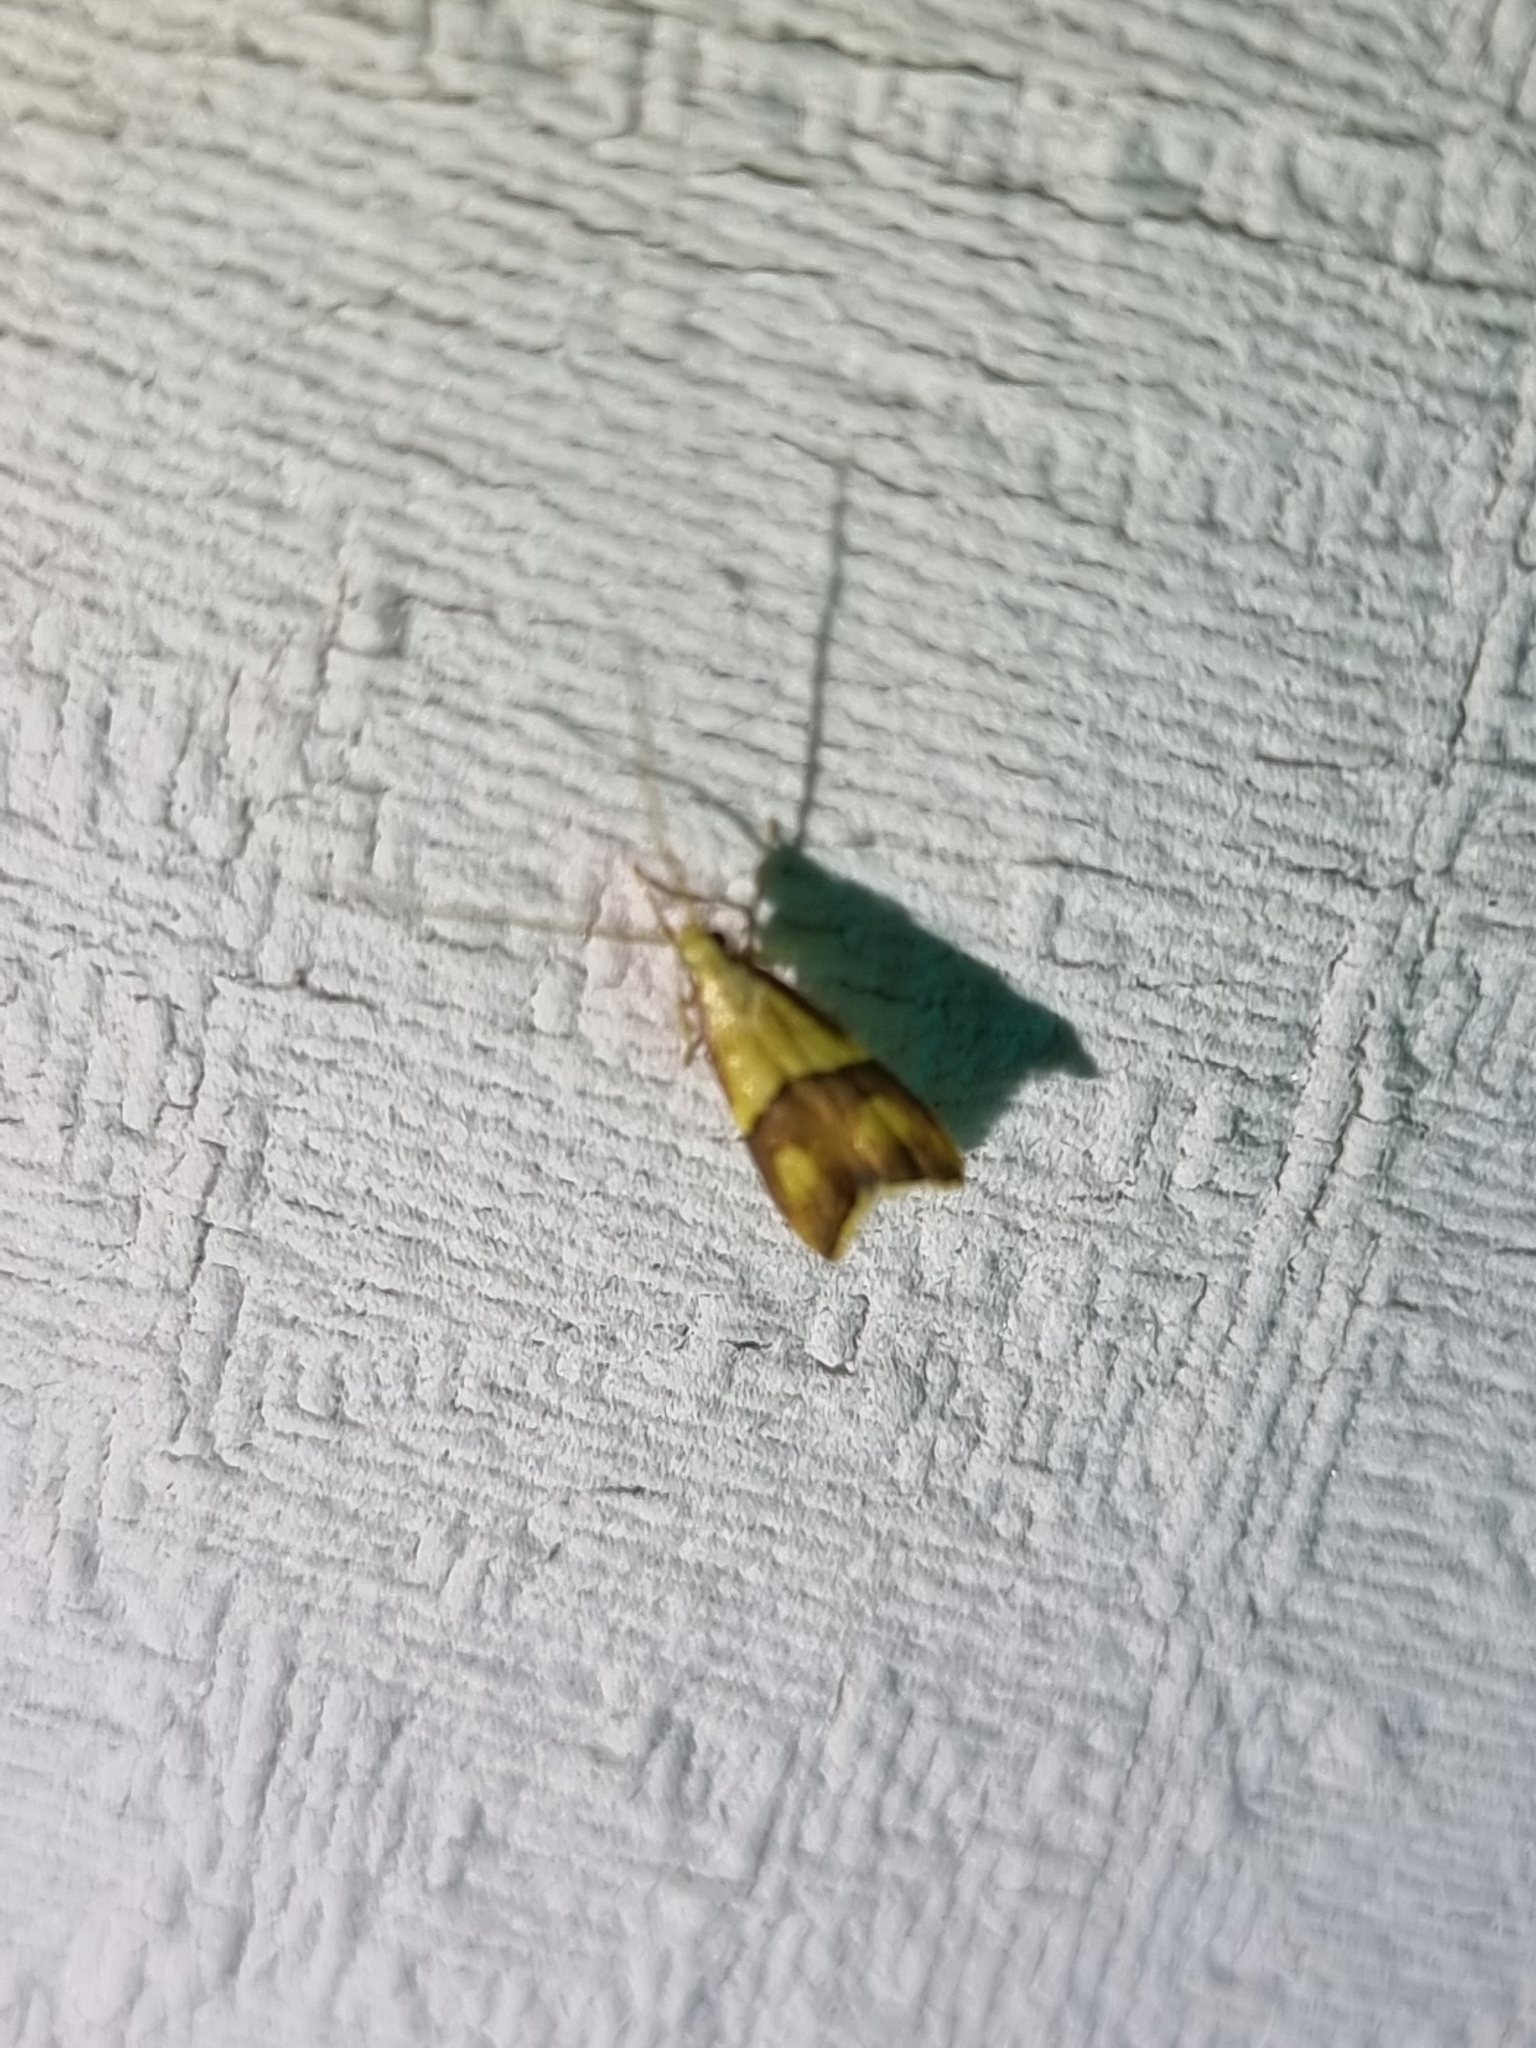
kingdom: Animalia
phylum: Arthropoda
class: Insecta
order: Lepidoptera
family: Lecithoceridae
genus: Crocanthes
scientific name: Crocanthes prasinopis
